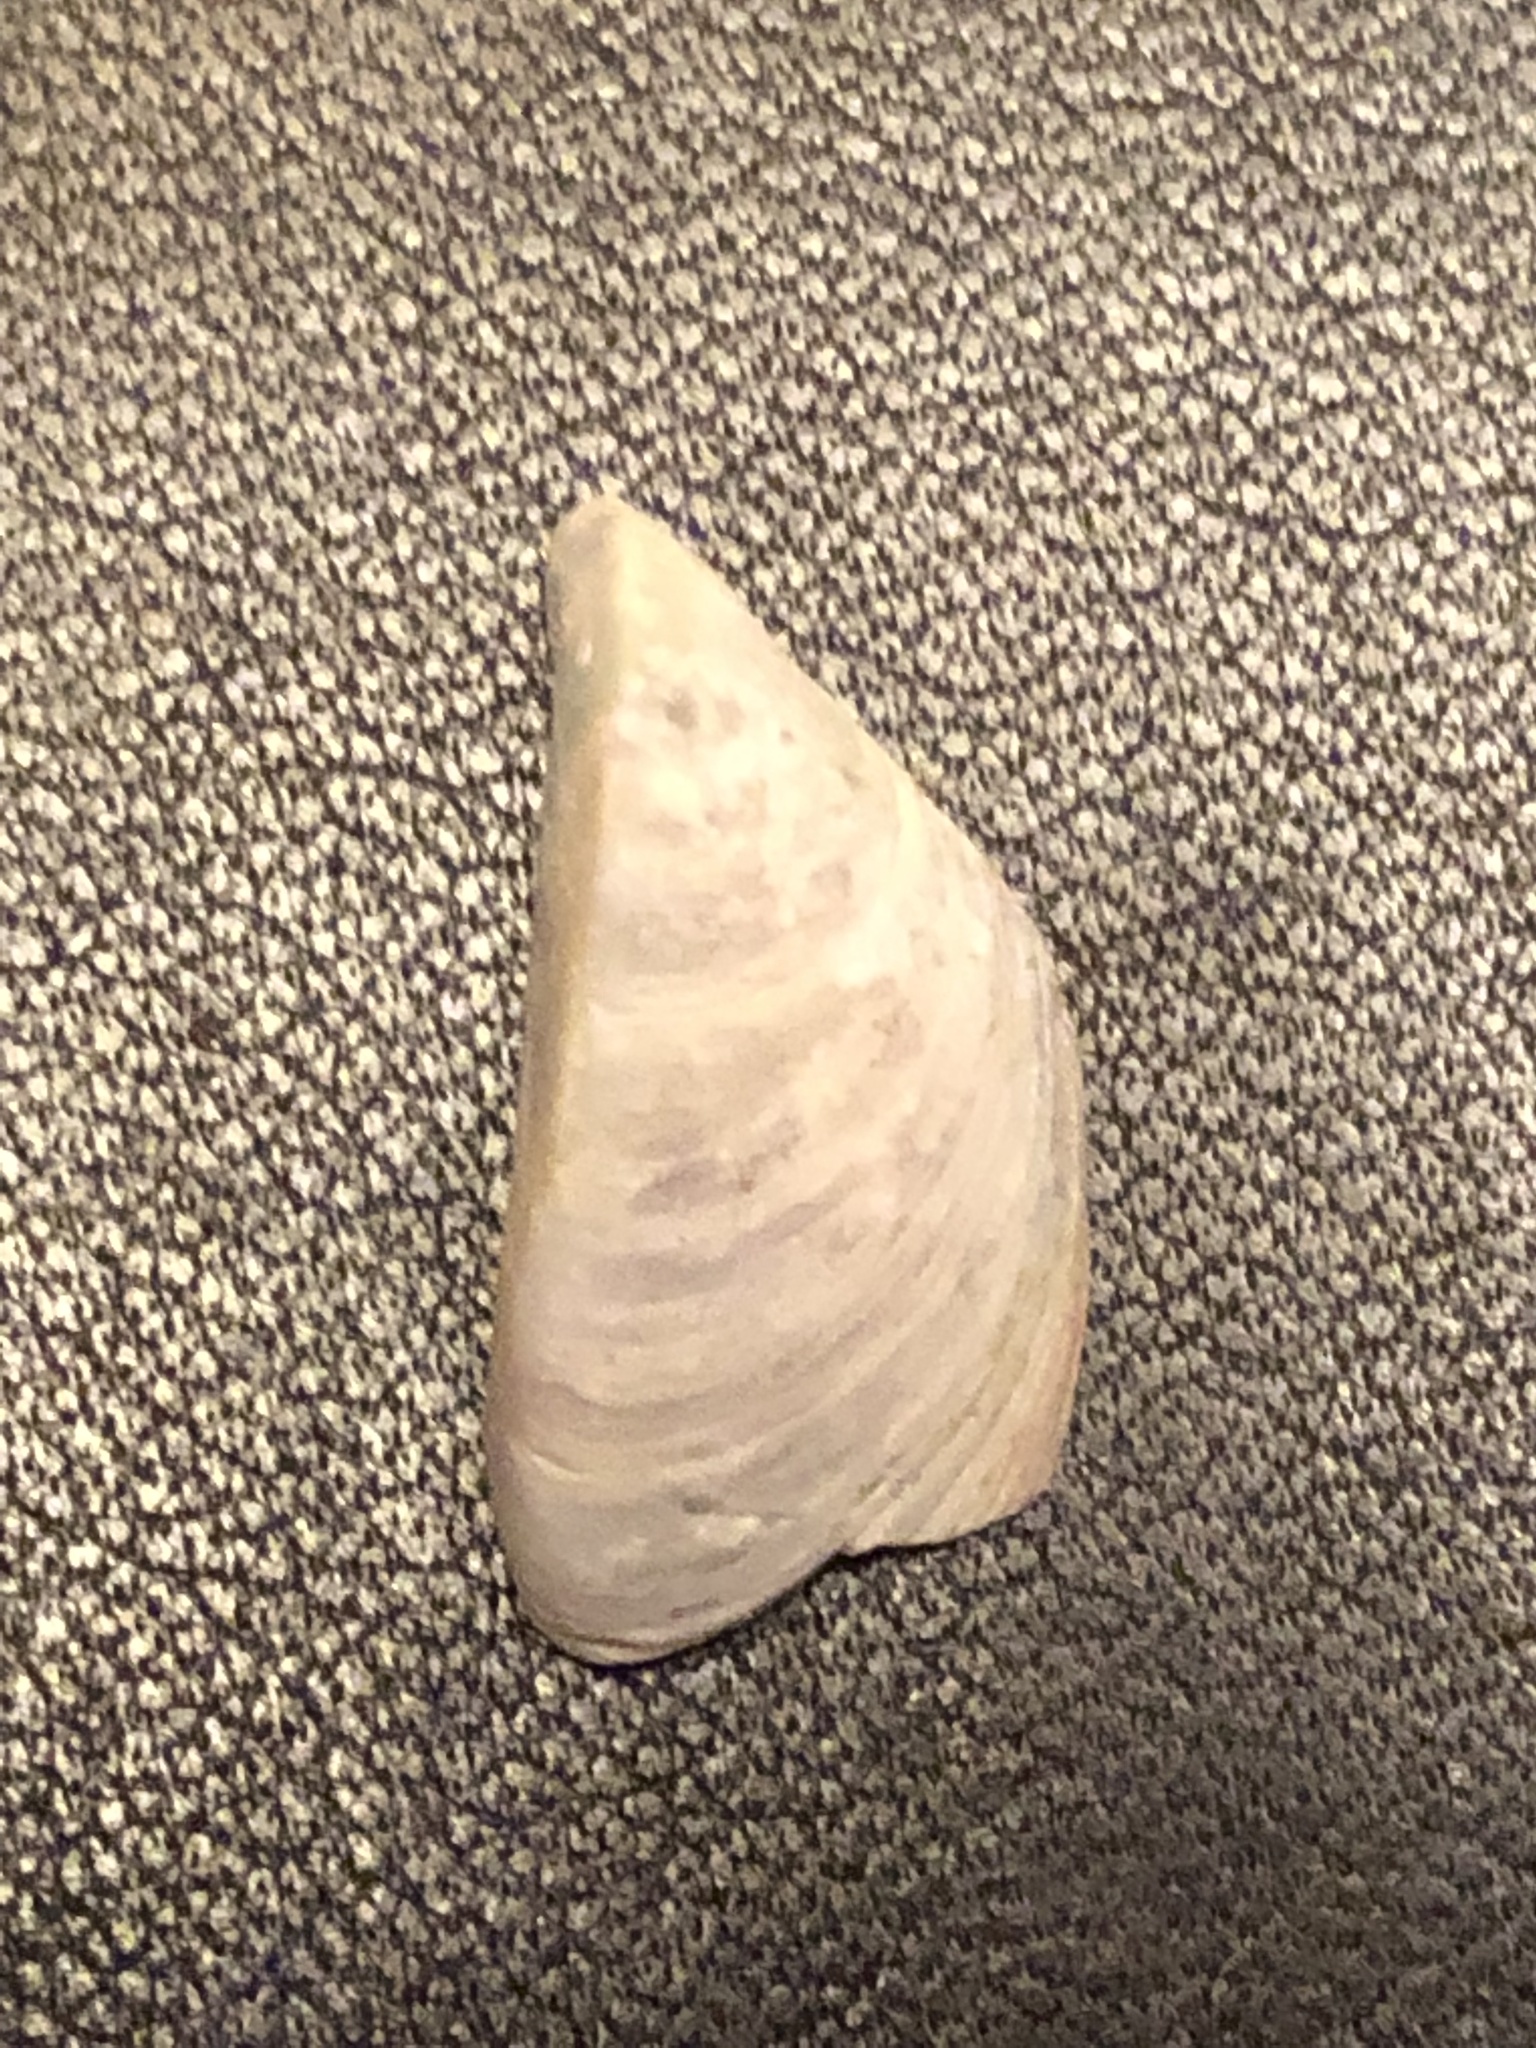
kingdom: Animalia
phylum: Mollusca
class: Bivalvia
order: Myida
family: Dreissenidae
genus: Dreissena
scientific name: Dreissena polymorpha
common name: Zebra mussel
